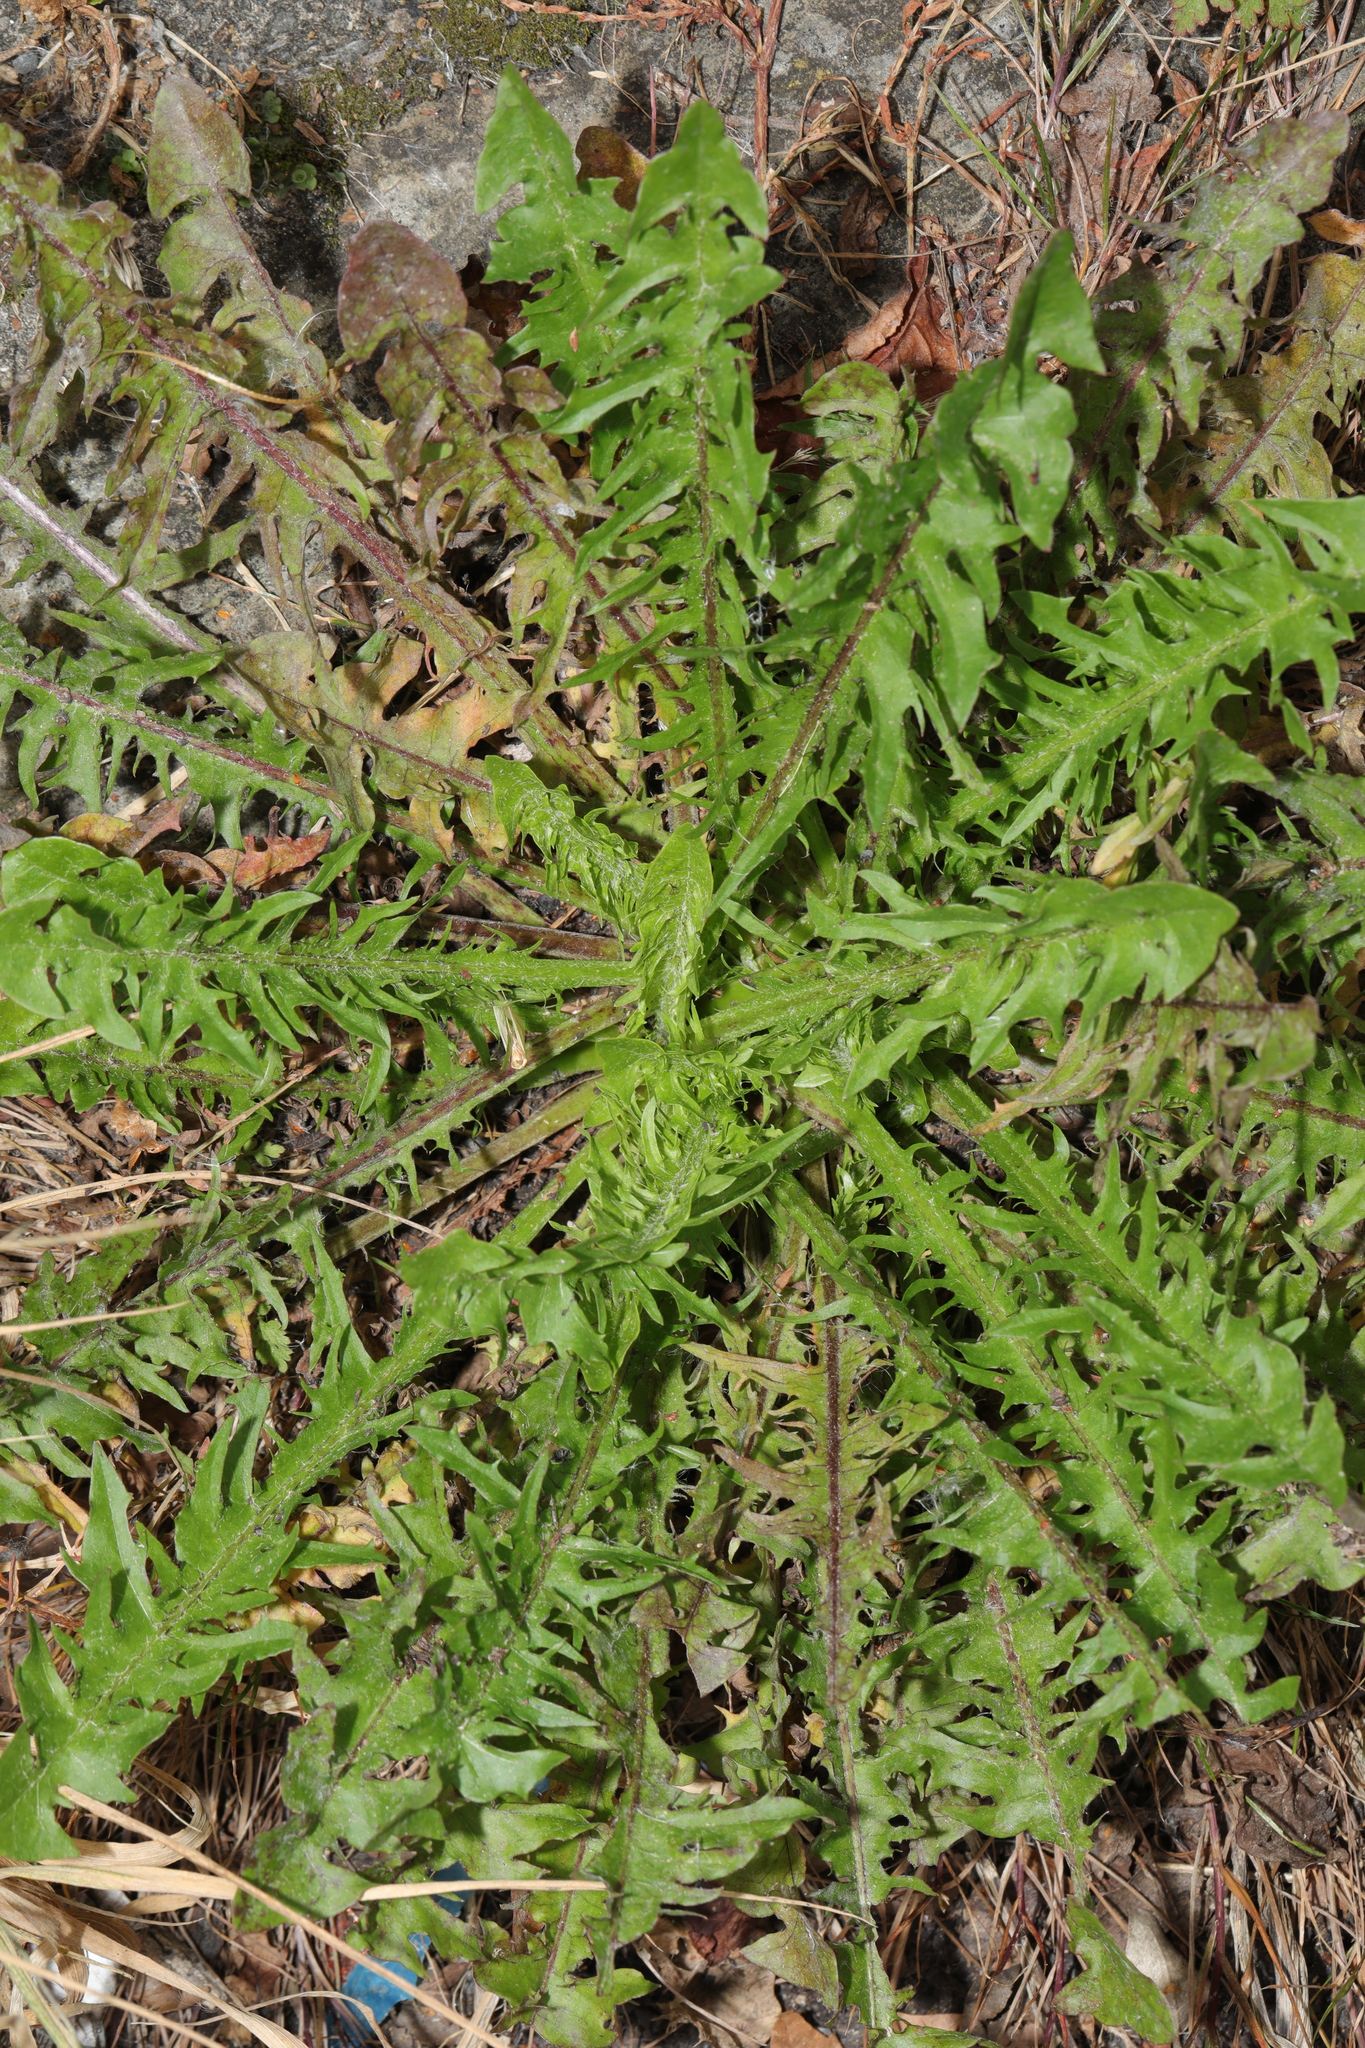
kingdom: Plantae
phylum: Tracheophyta
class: Magnoliopsida
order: Asterales
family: Asteraceae
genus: Taraxacum
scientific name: Taraxacum officinale
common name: Common dandelion
